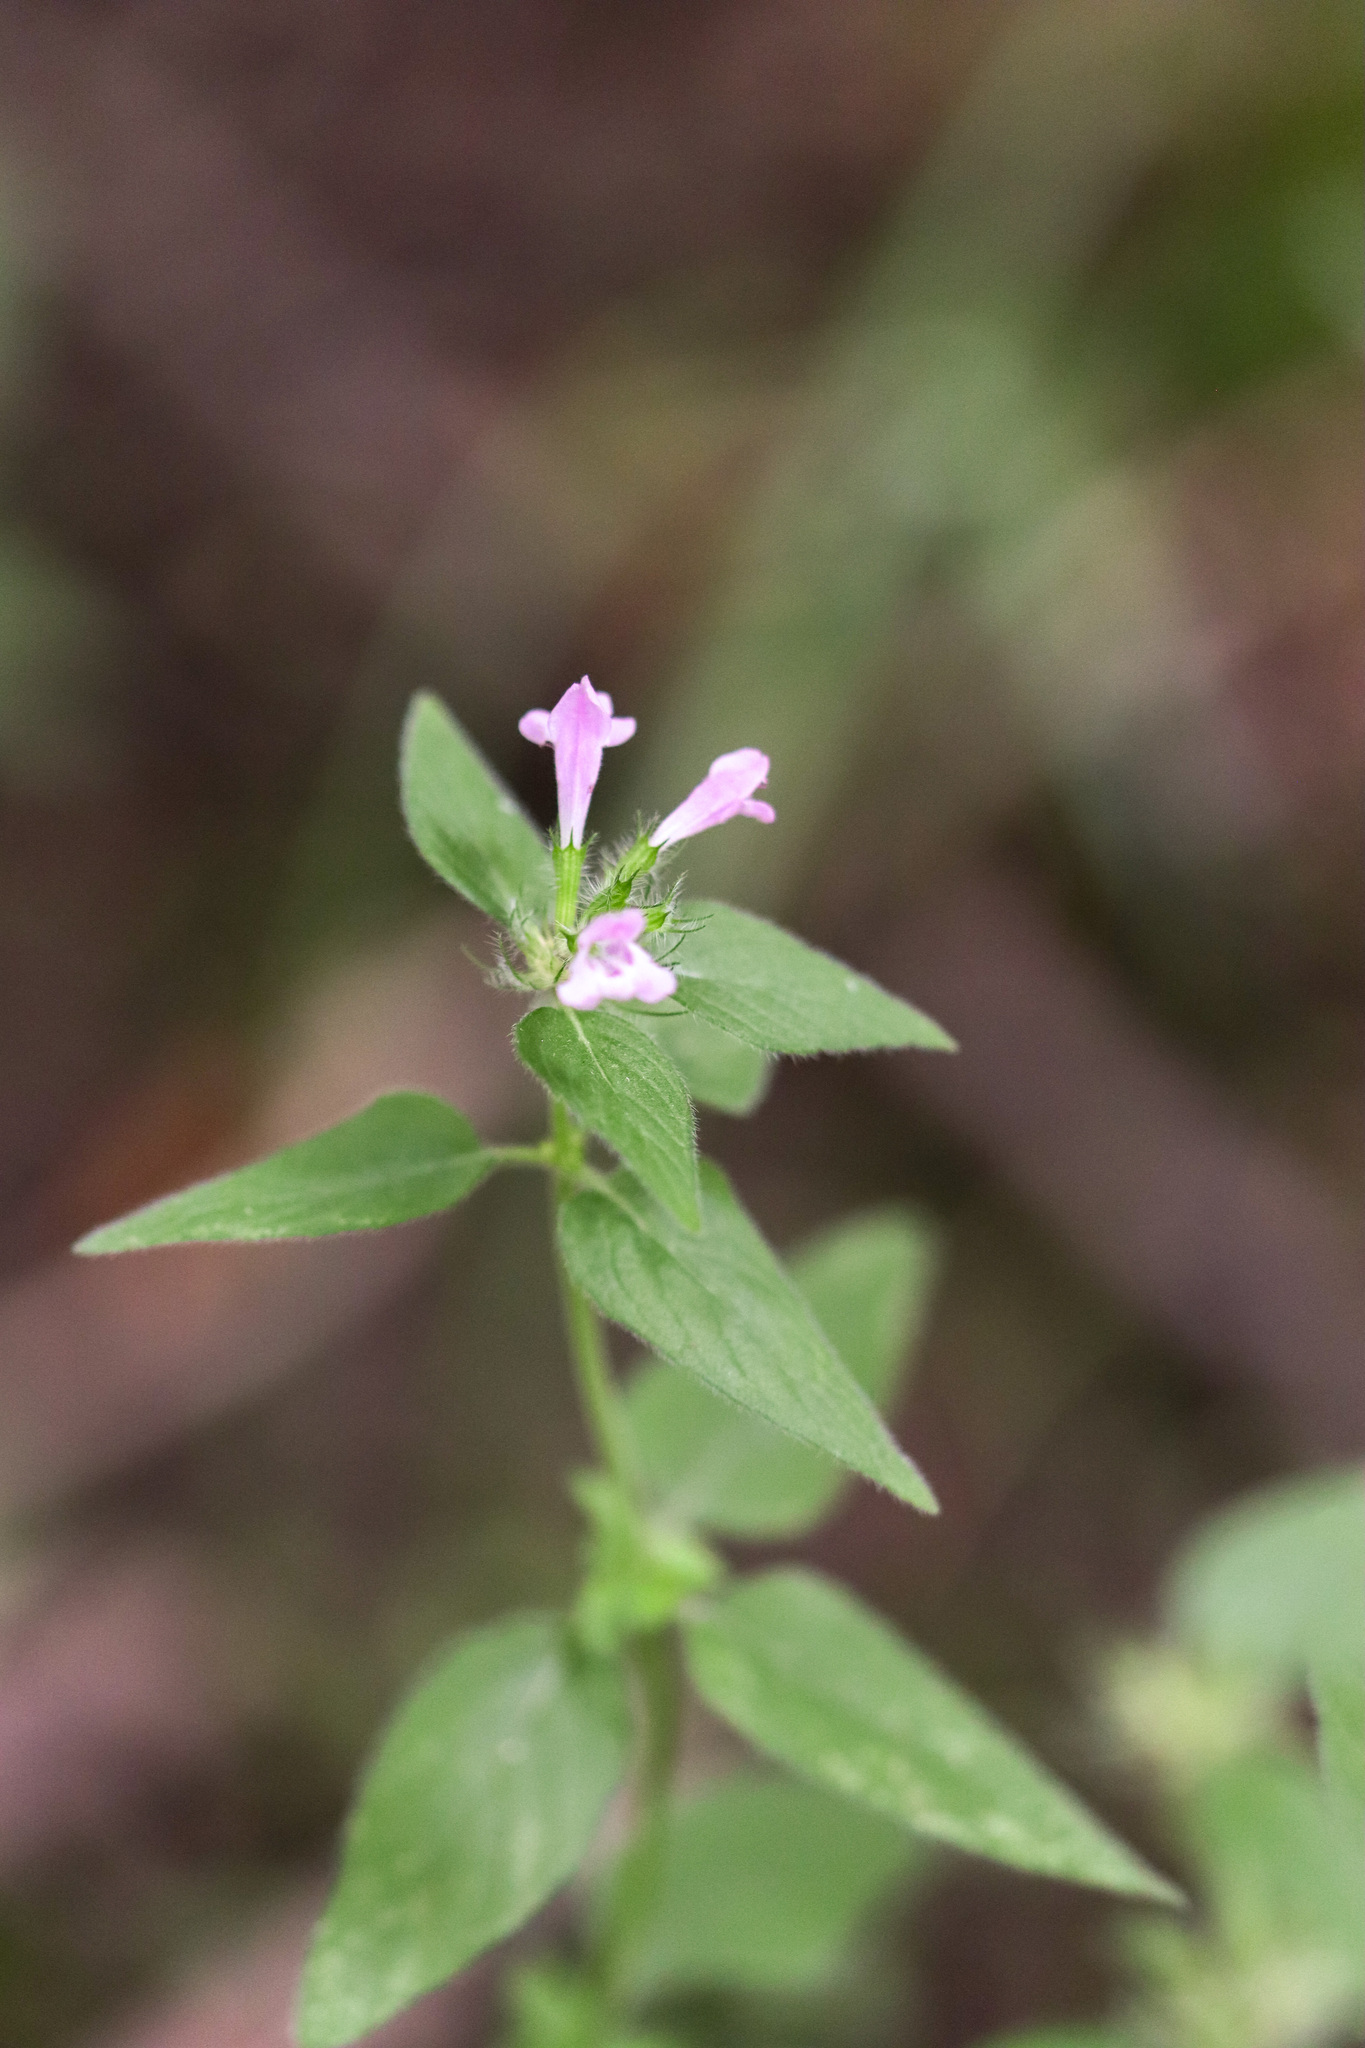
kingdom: Plantae
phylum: Tracheophyta
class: Magnoliopsida
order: Lamiales
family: Lamiaceae
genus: Clinopodium
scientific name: Clinopodium vulgare
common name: Wild basil
